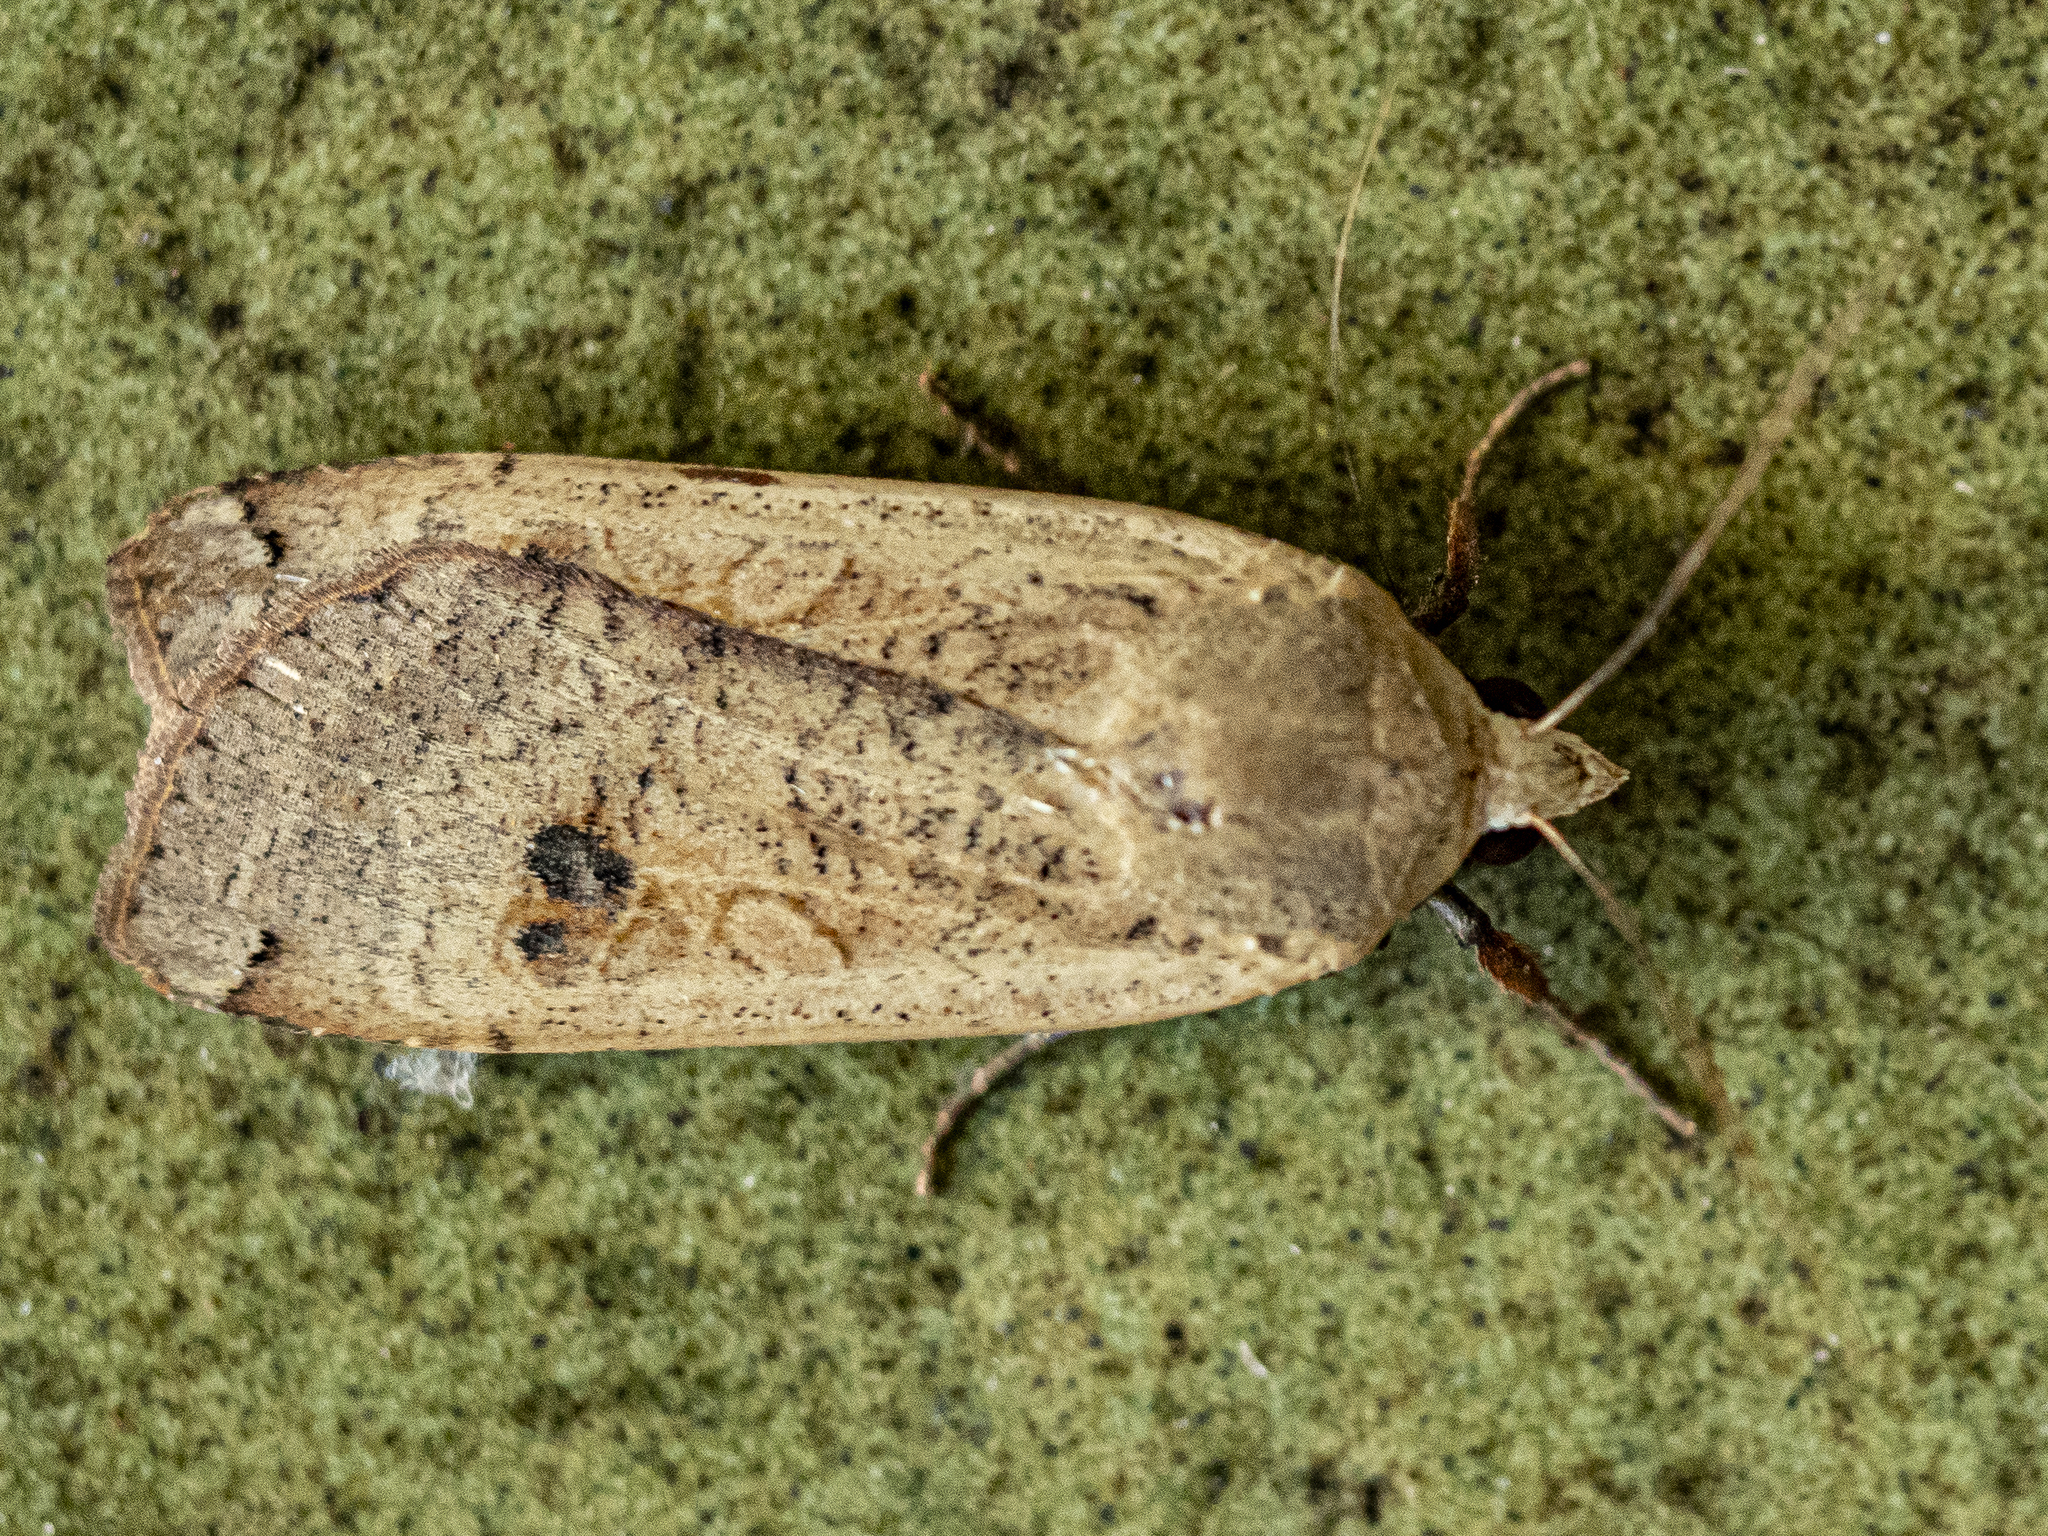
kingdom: Animalia
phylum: Arthropoda
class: Insecta
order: Lepidoptera
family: Noctuidae
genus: Noctua
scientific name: Noctua pronuba
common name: Large yellow underwing
